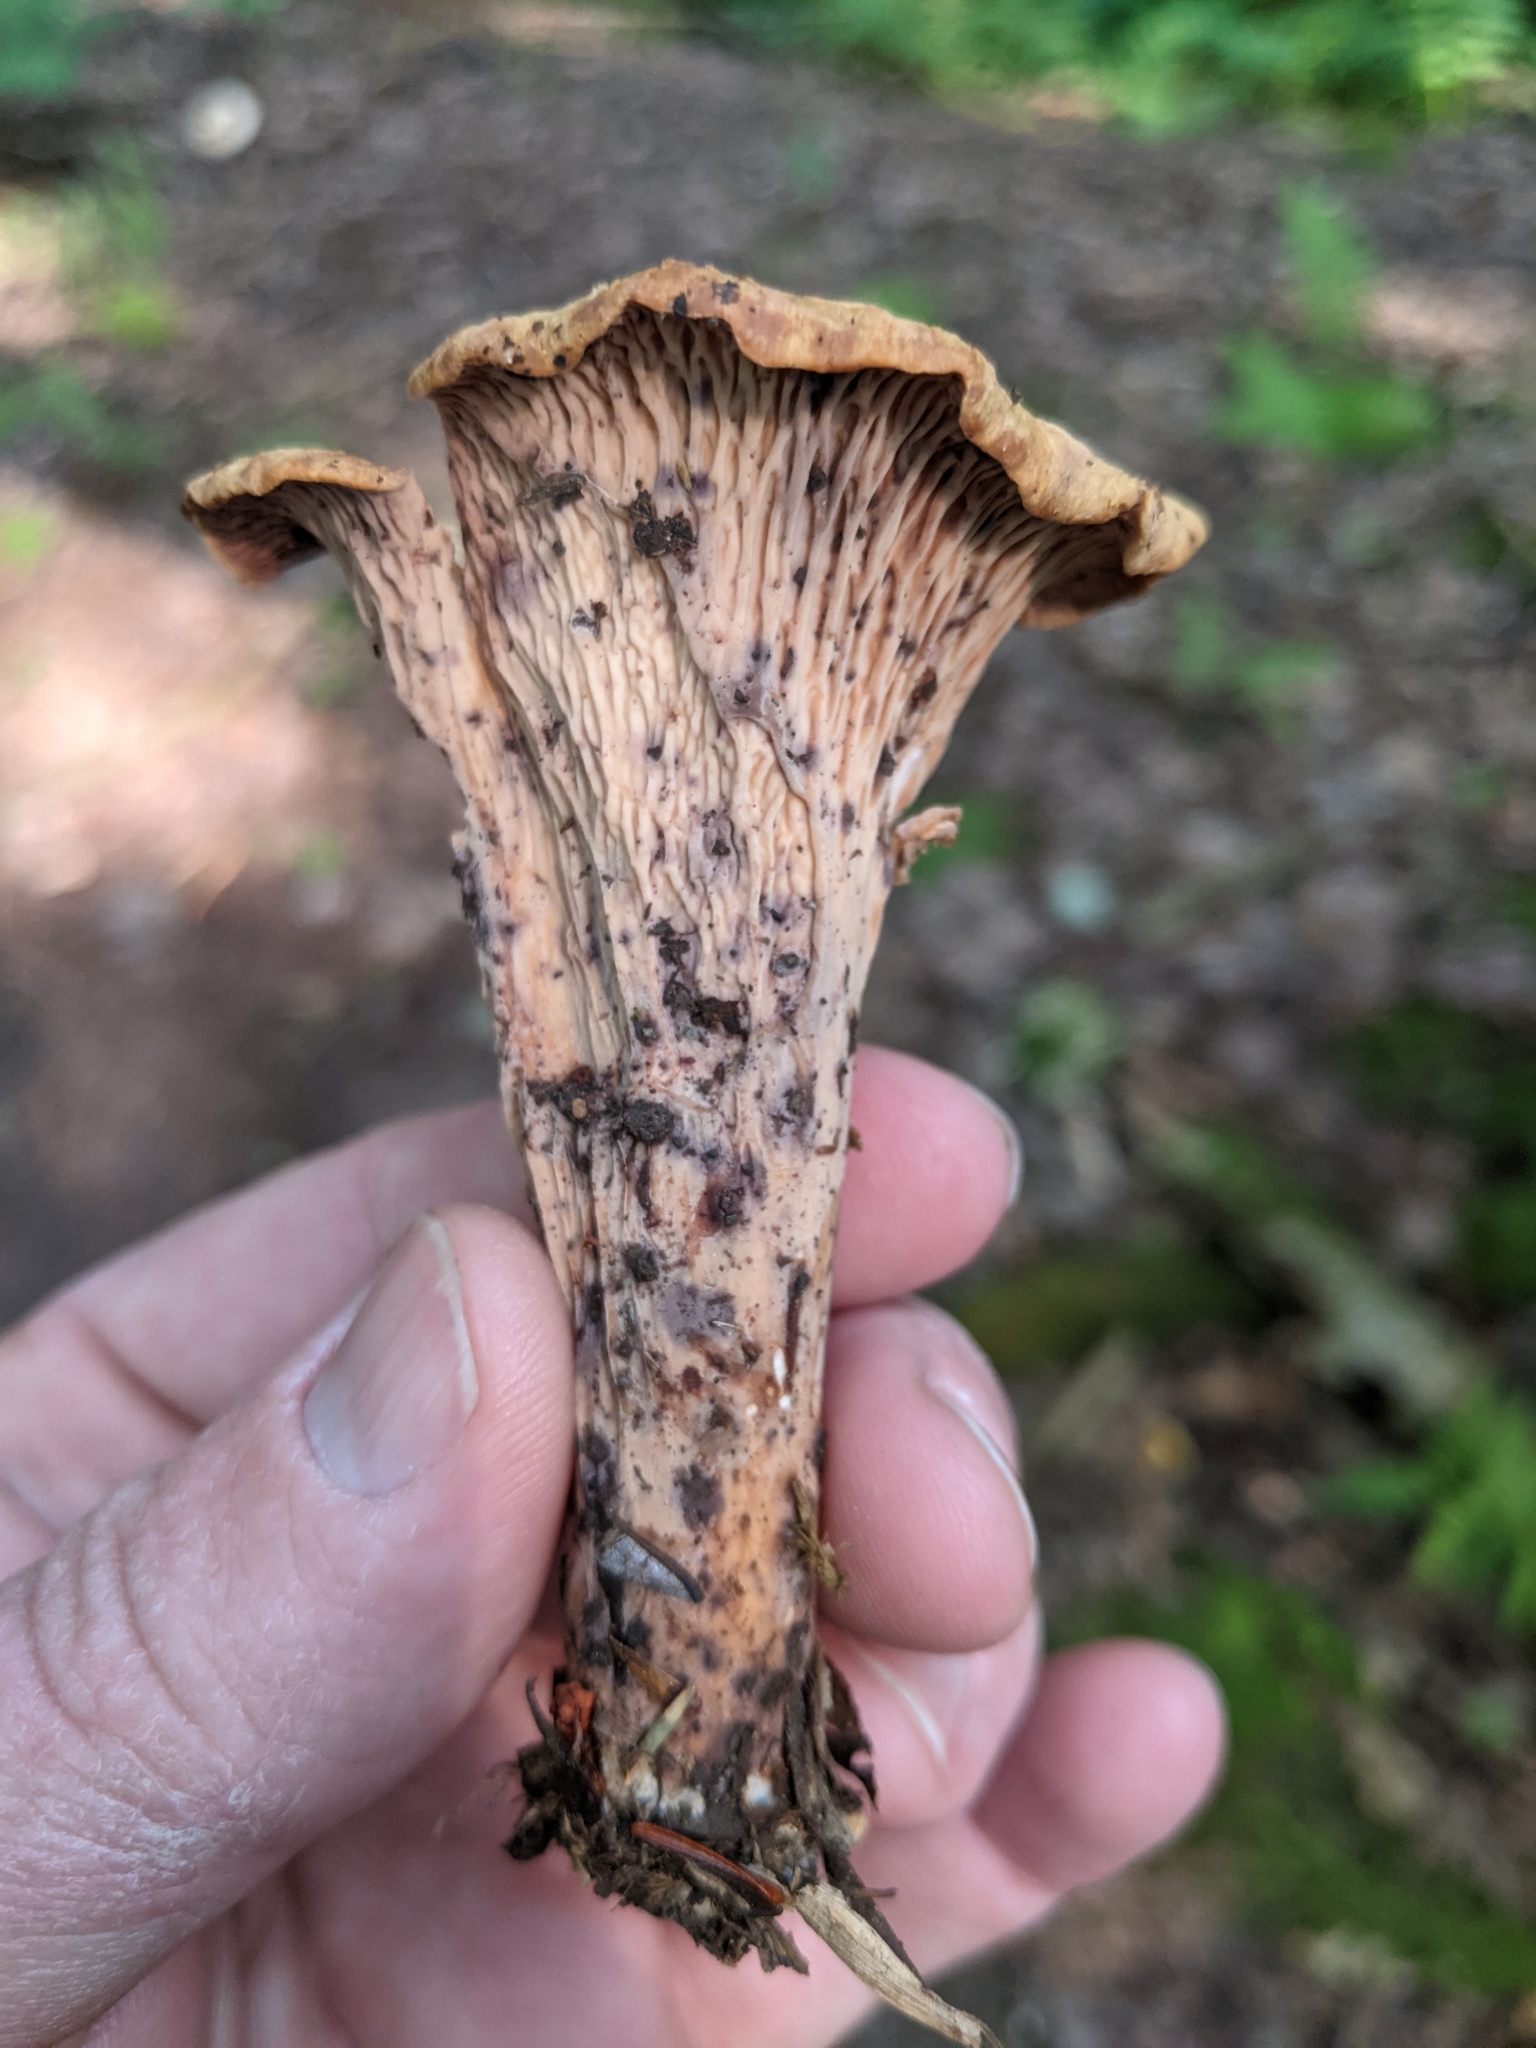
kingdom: Fungi
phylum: Basidiomycota
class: Agaricomycetes
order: Gomphales
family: Gomphaceae
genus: Turbinellus
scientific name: Turbinellus floccosus
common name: Scaly chanterelle
